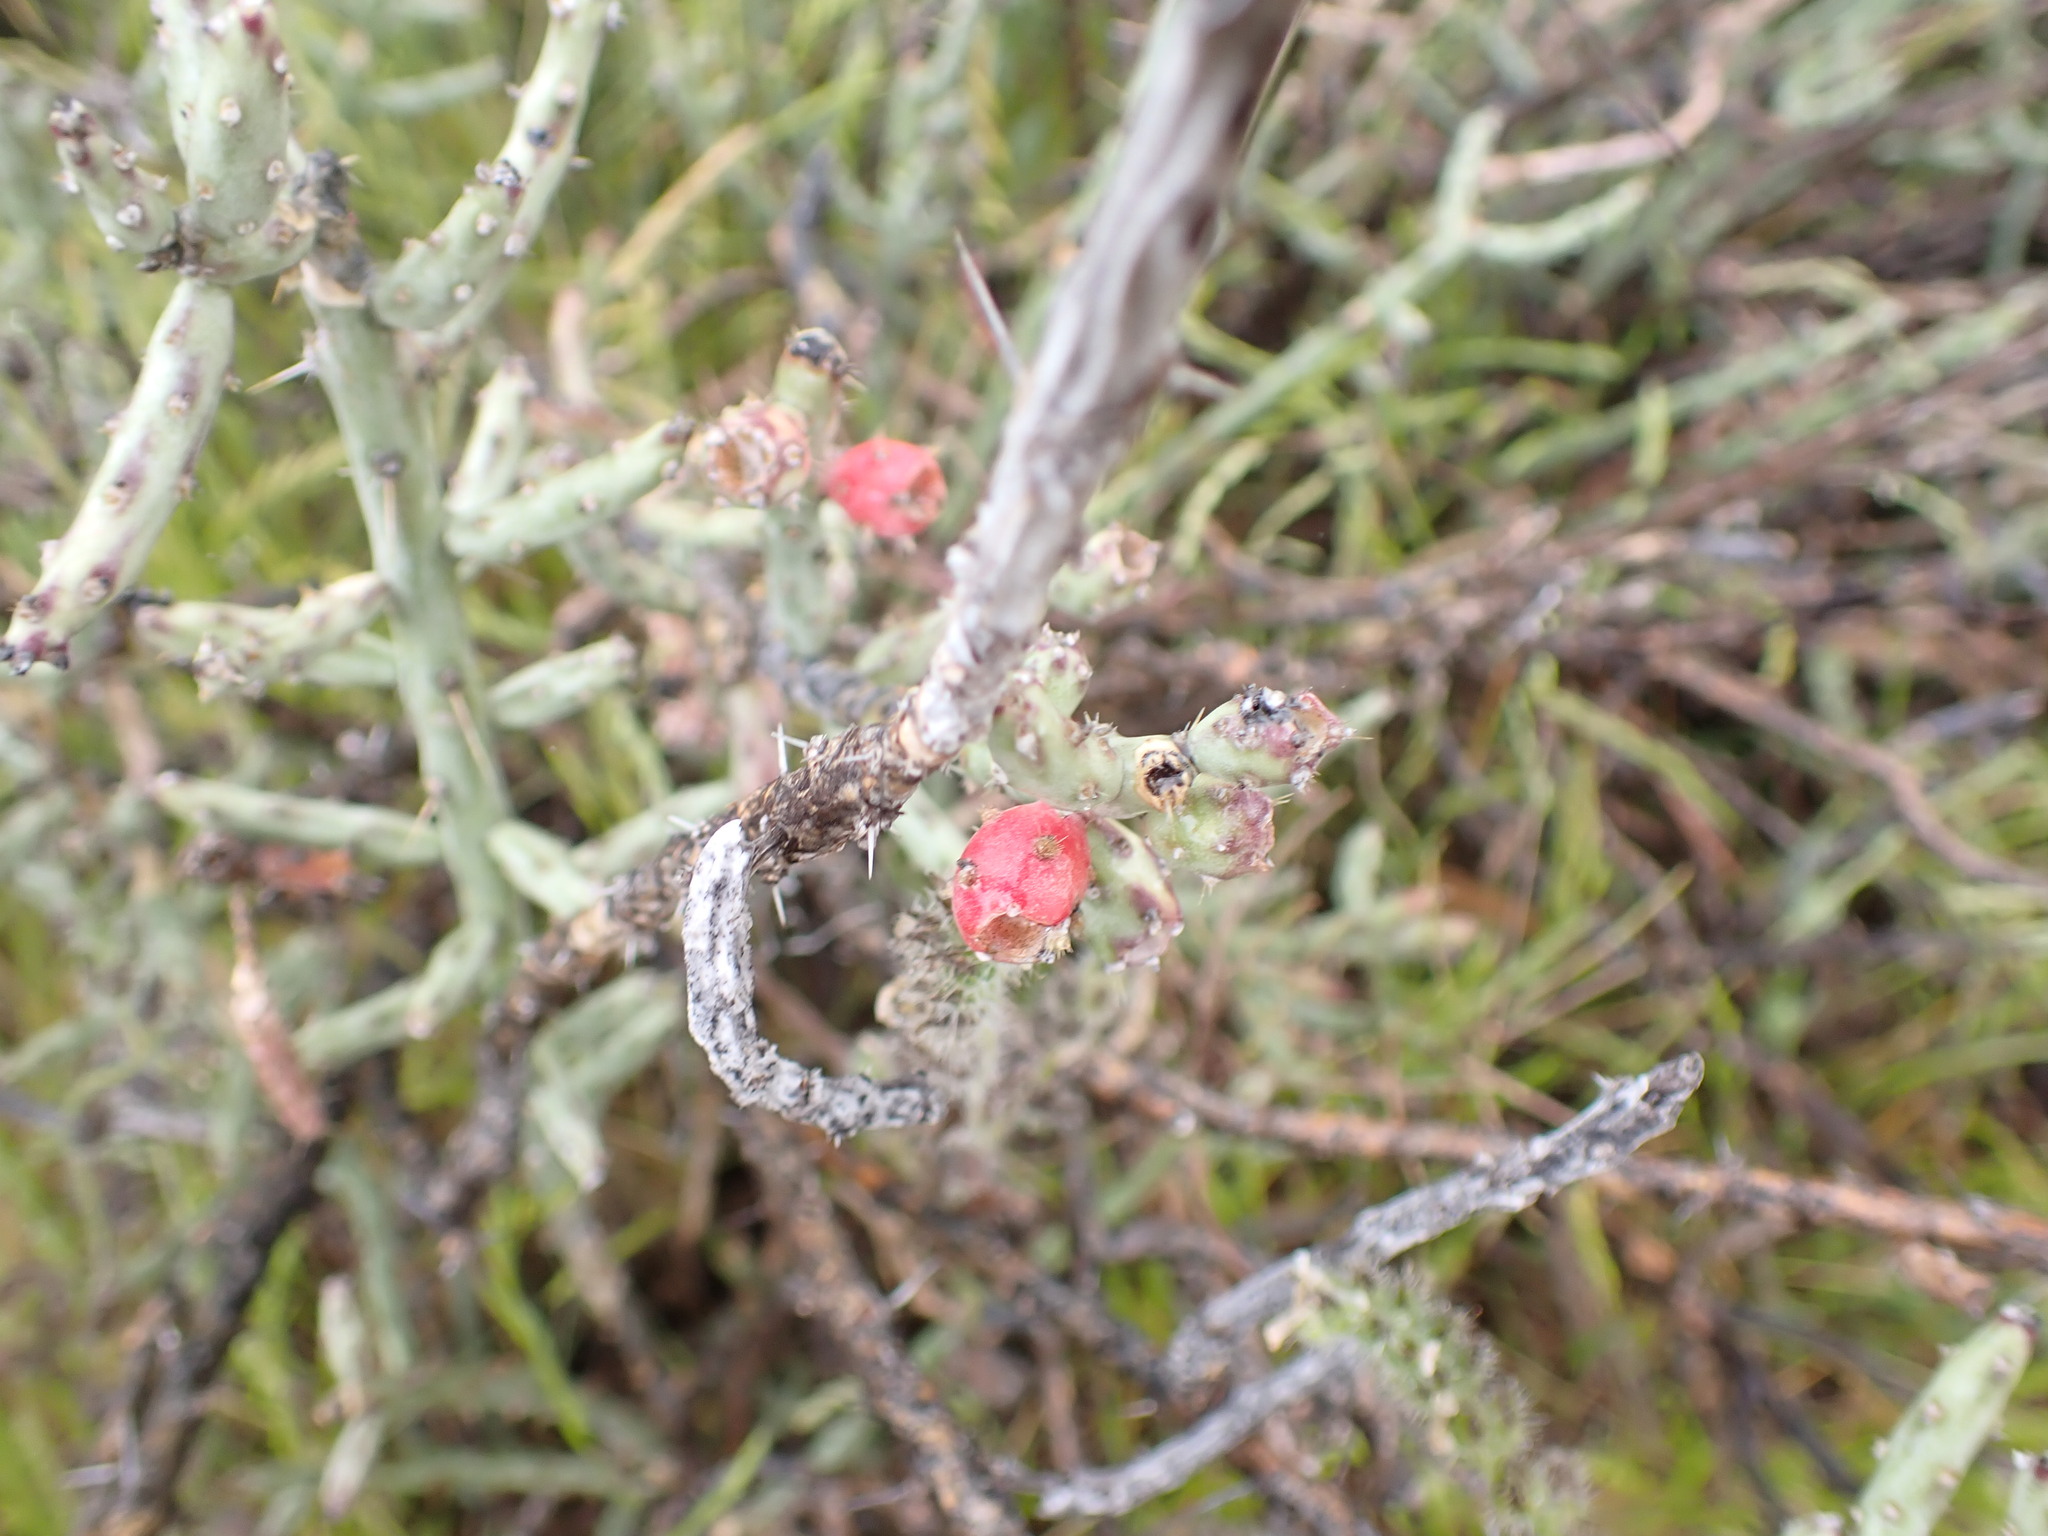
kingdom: Plantae
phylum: Tracheophyta
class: Magnoliopsida
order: Caryophyllales
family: Cactaceae
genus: Cylindropuntia
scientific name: Cylindropuntia leptocaulis
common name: Christmas cactus
